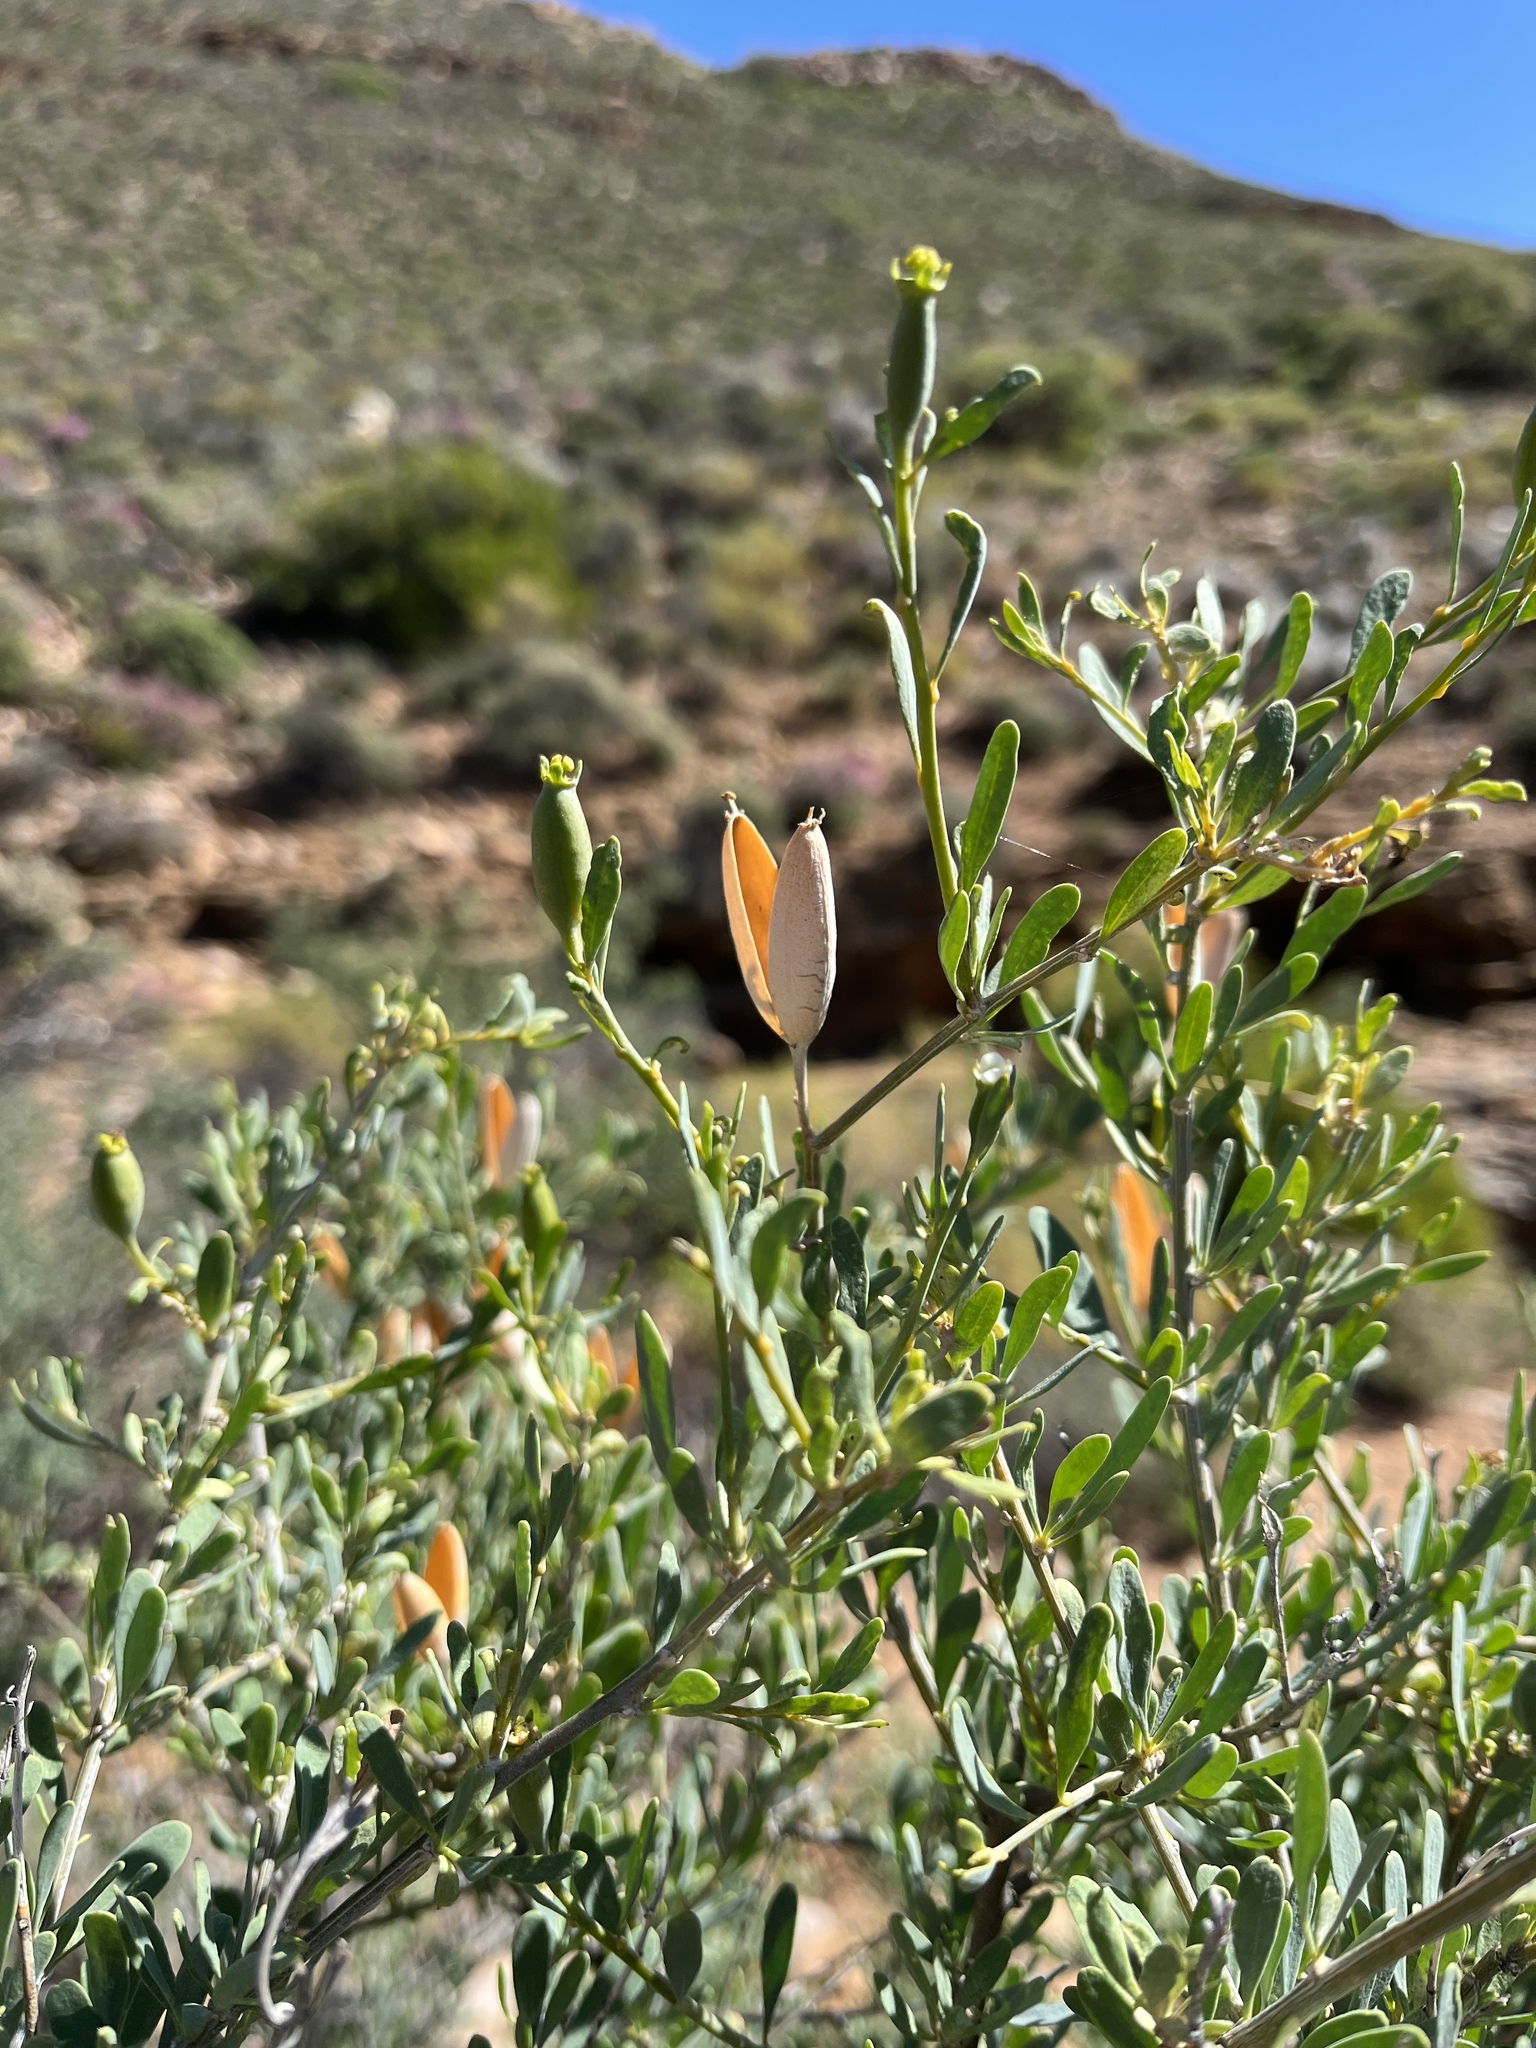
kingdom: Plantae
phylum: Tracheophyta
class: Magnoliopsida
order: Solanales
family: Montiniaceae
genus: Montinia
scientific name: Montinia caryophyllacea
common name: Wild clove-bush
